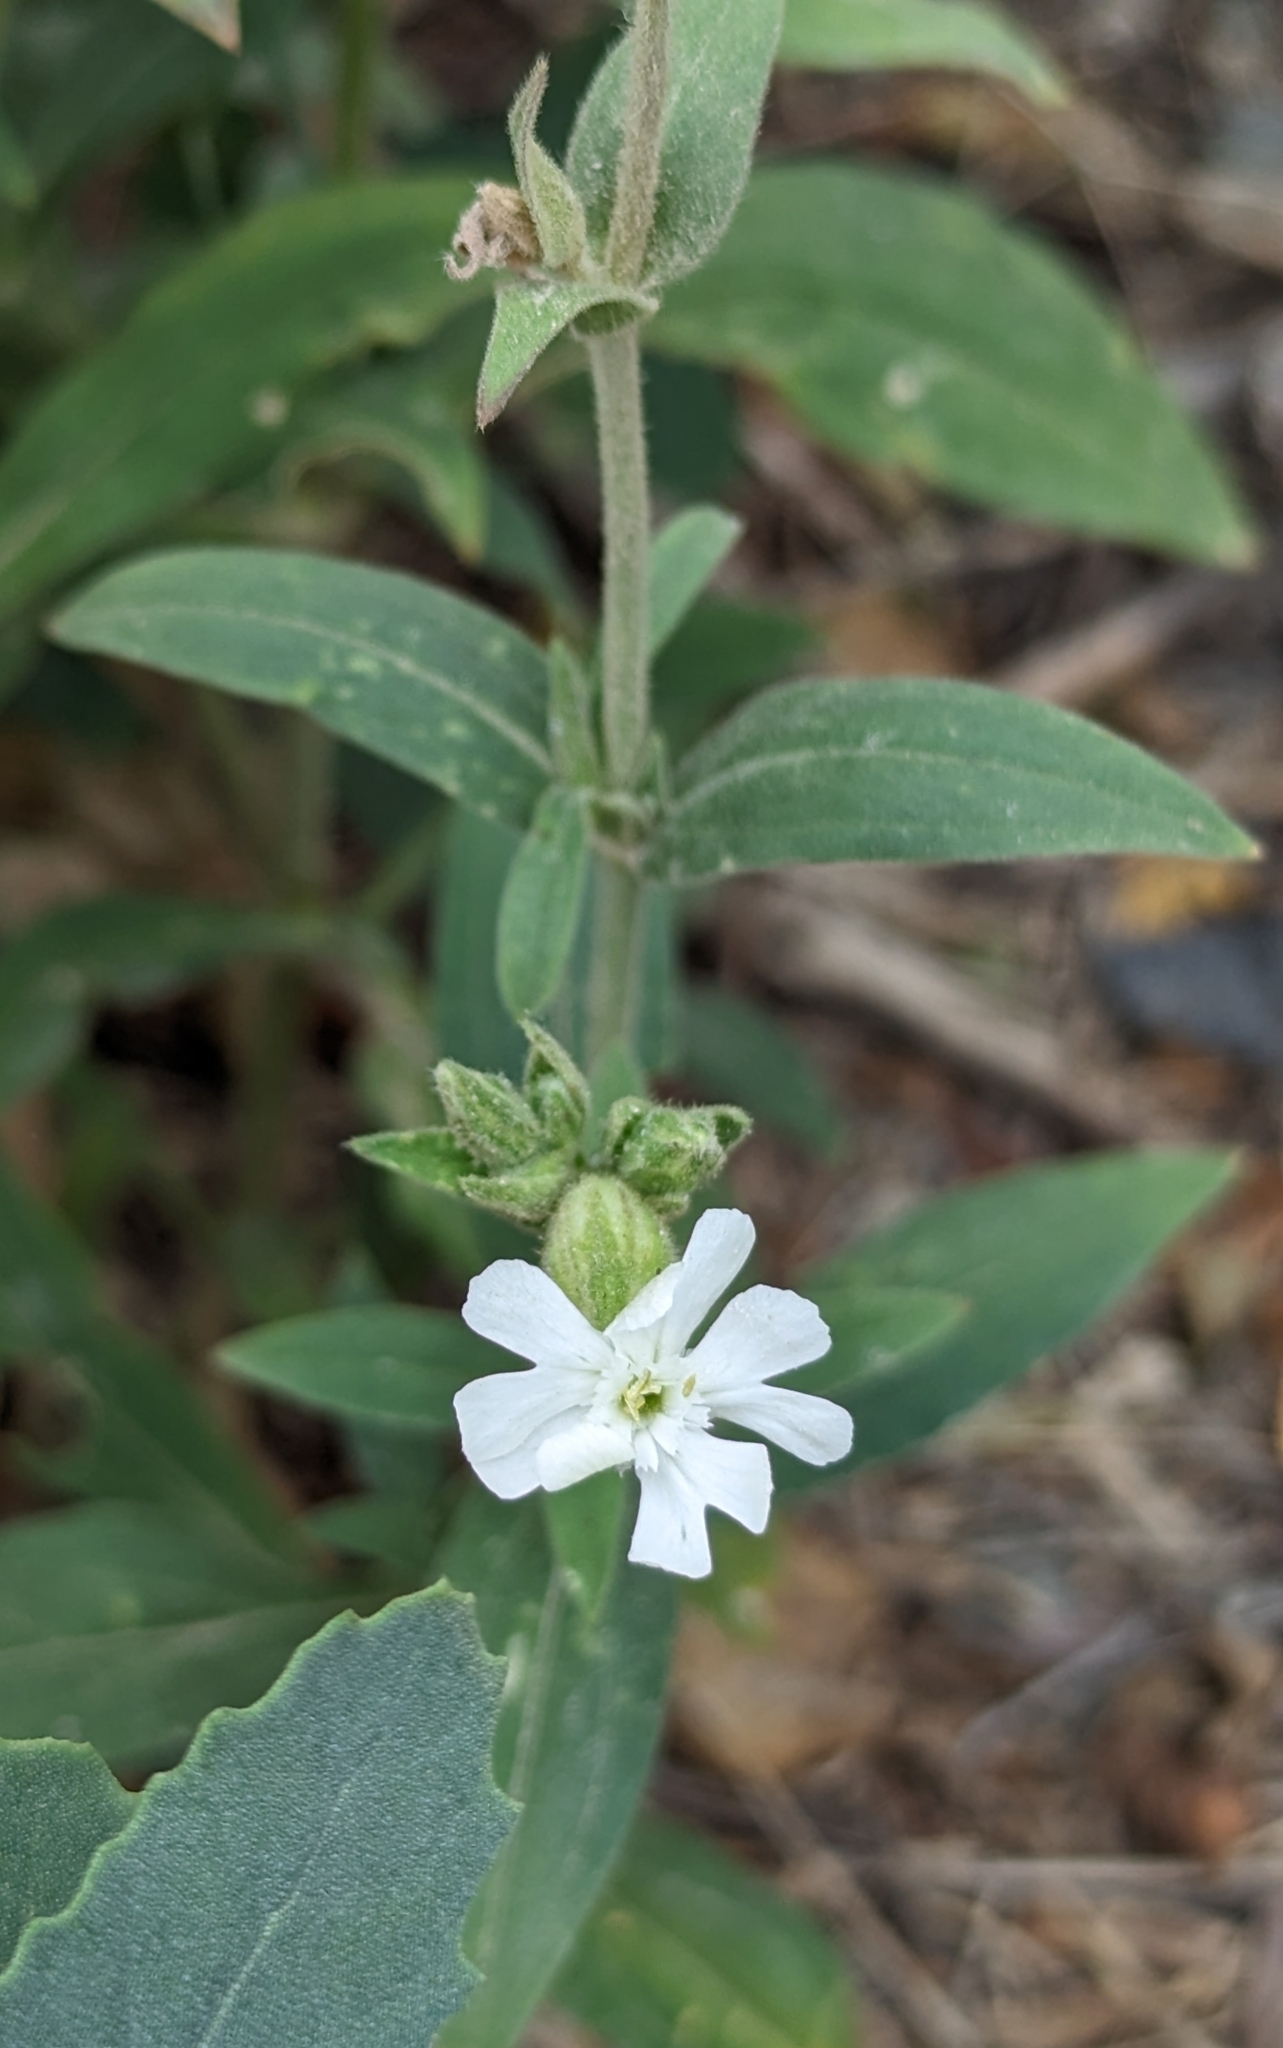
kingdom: Plantae
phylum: Tracheophyta
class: Magnoliopsida
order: Caryophyllales
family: Caryophyllaceae
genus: Silene
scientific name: Silene latifolia
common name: White campion
